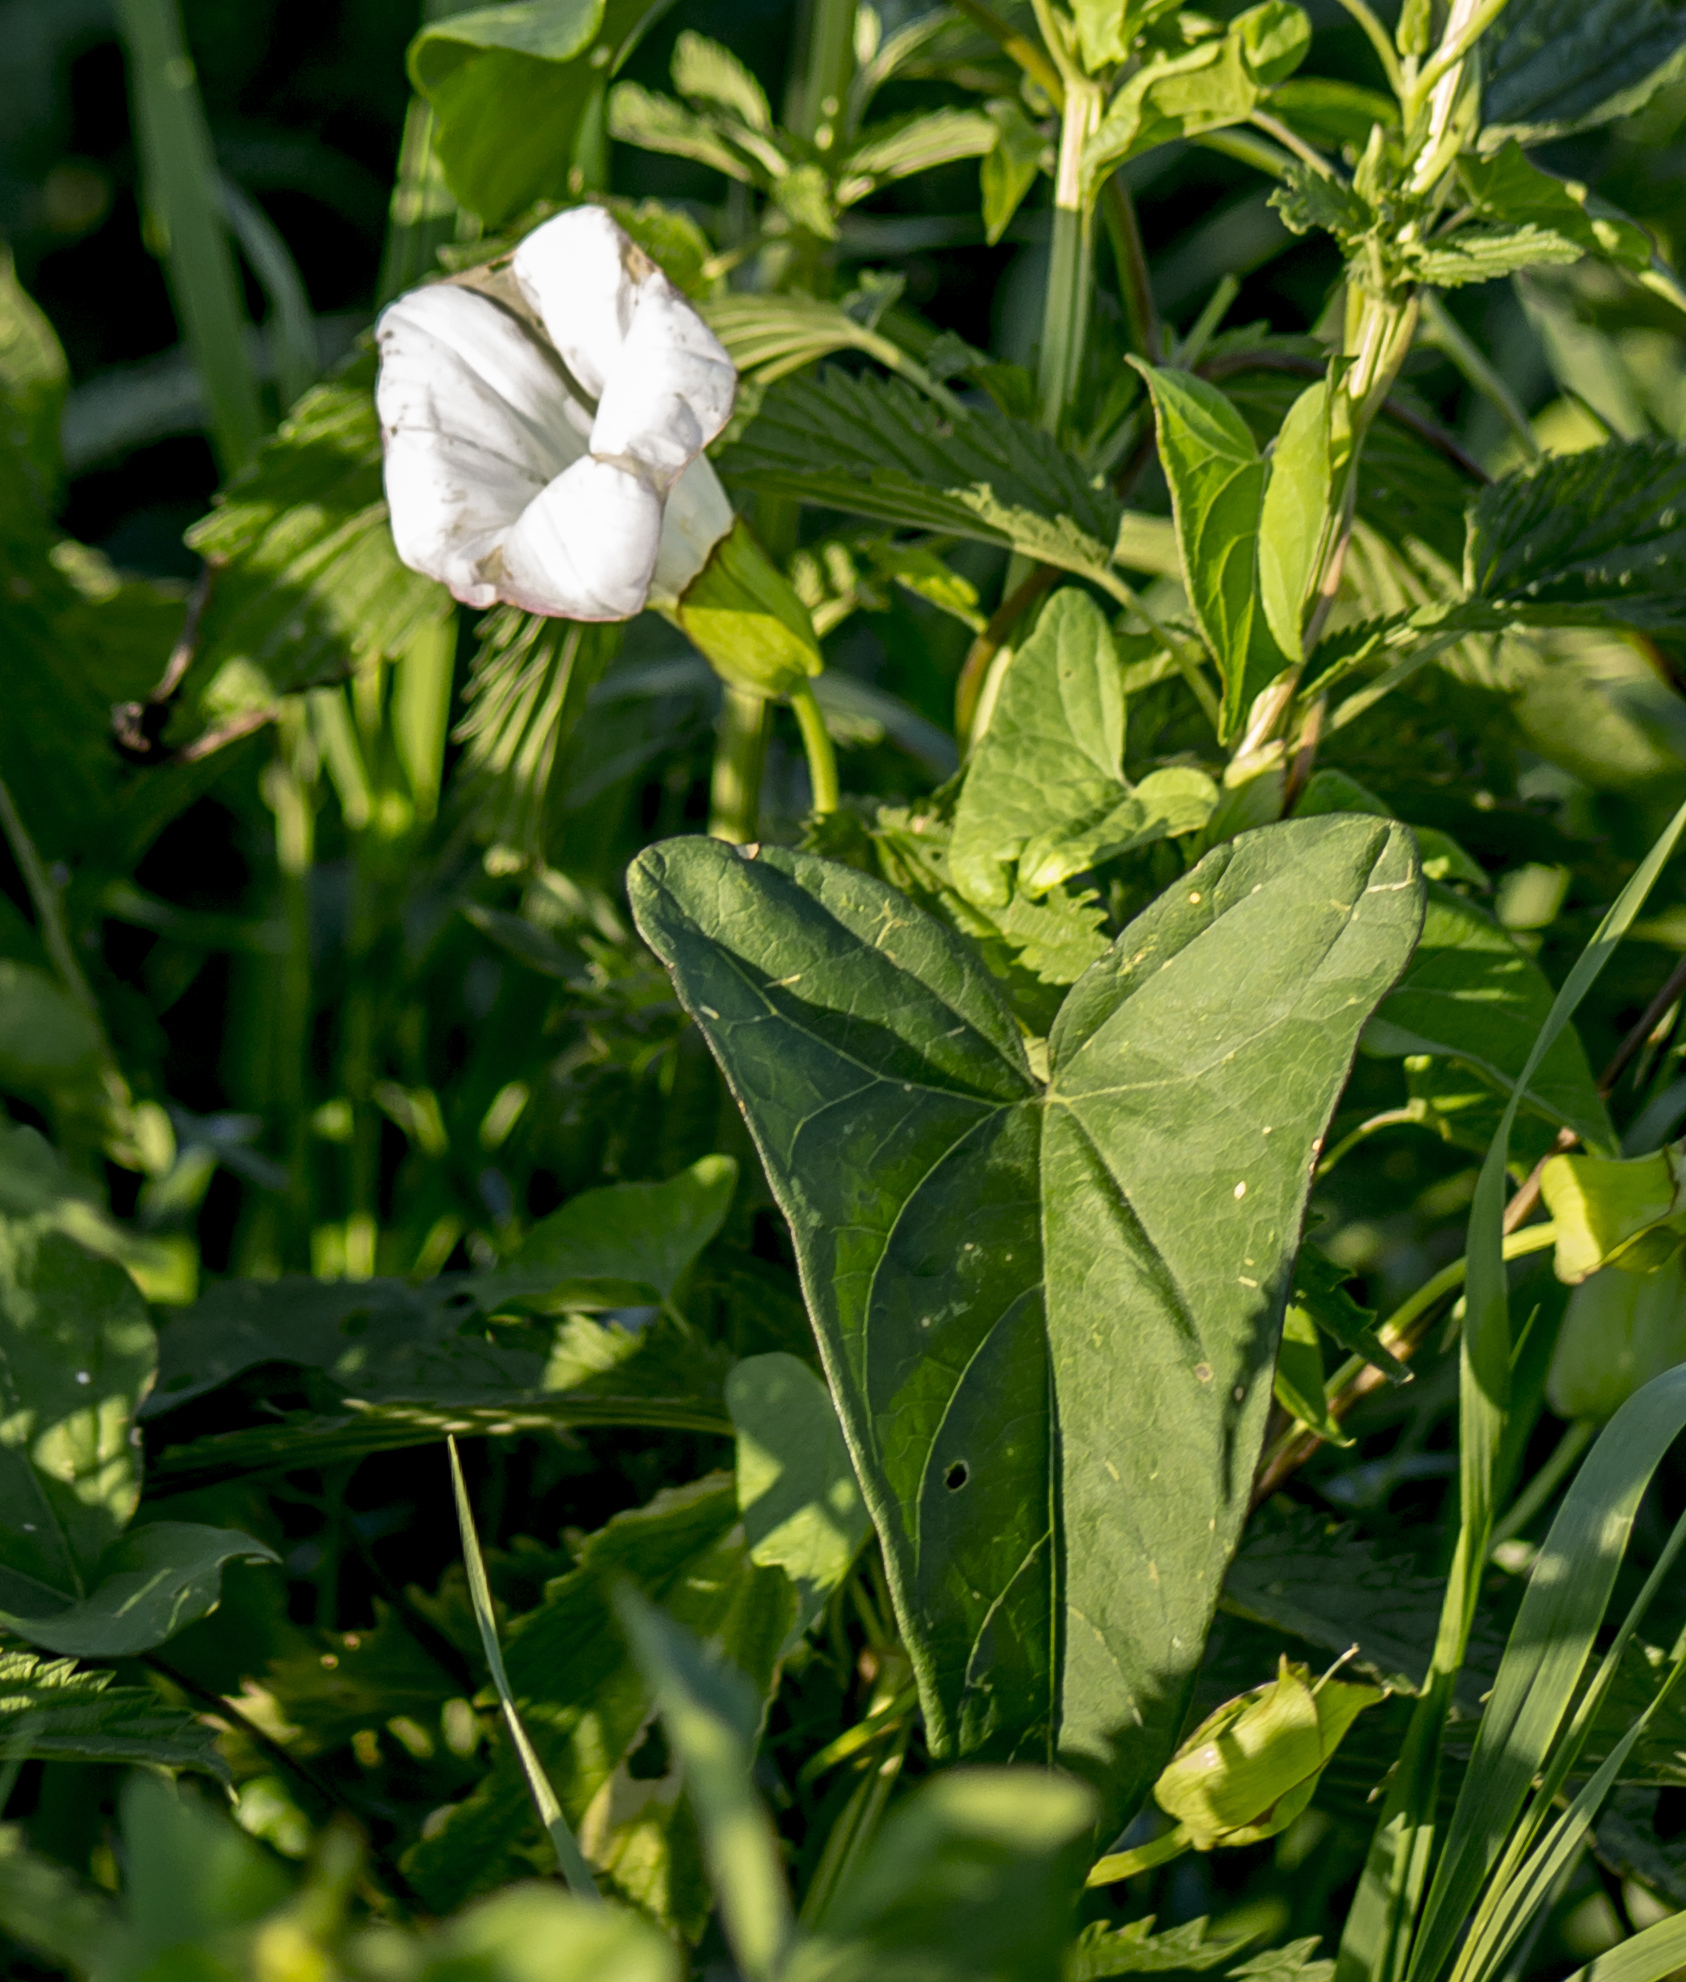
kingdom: Plantae
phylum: Tracheophyta
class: Magnoliopsida
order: Solanales
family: Convolvulaceae
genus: Calystegia
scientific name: Calystegia sepium
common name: Hedge bindweed
